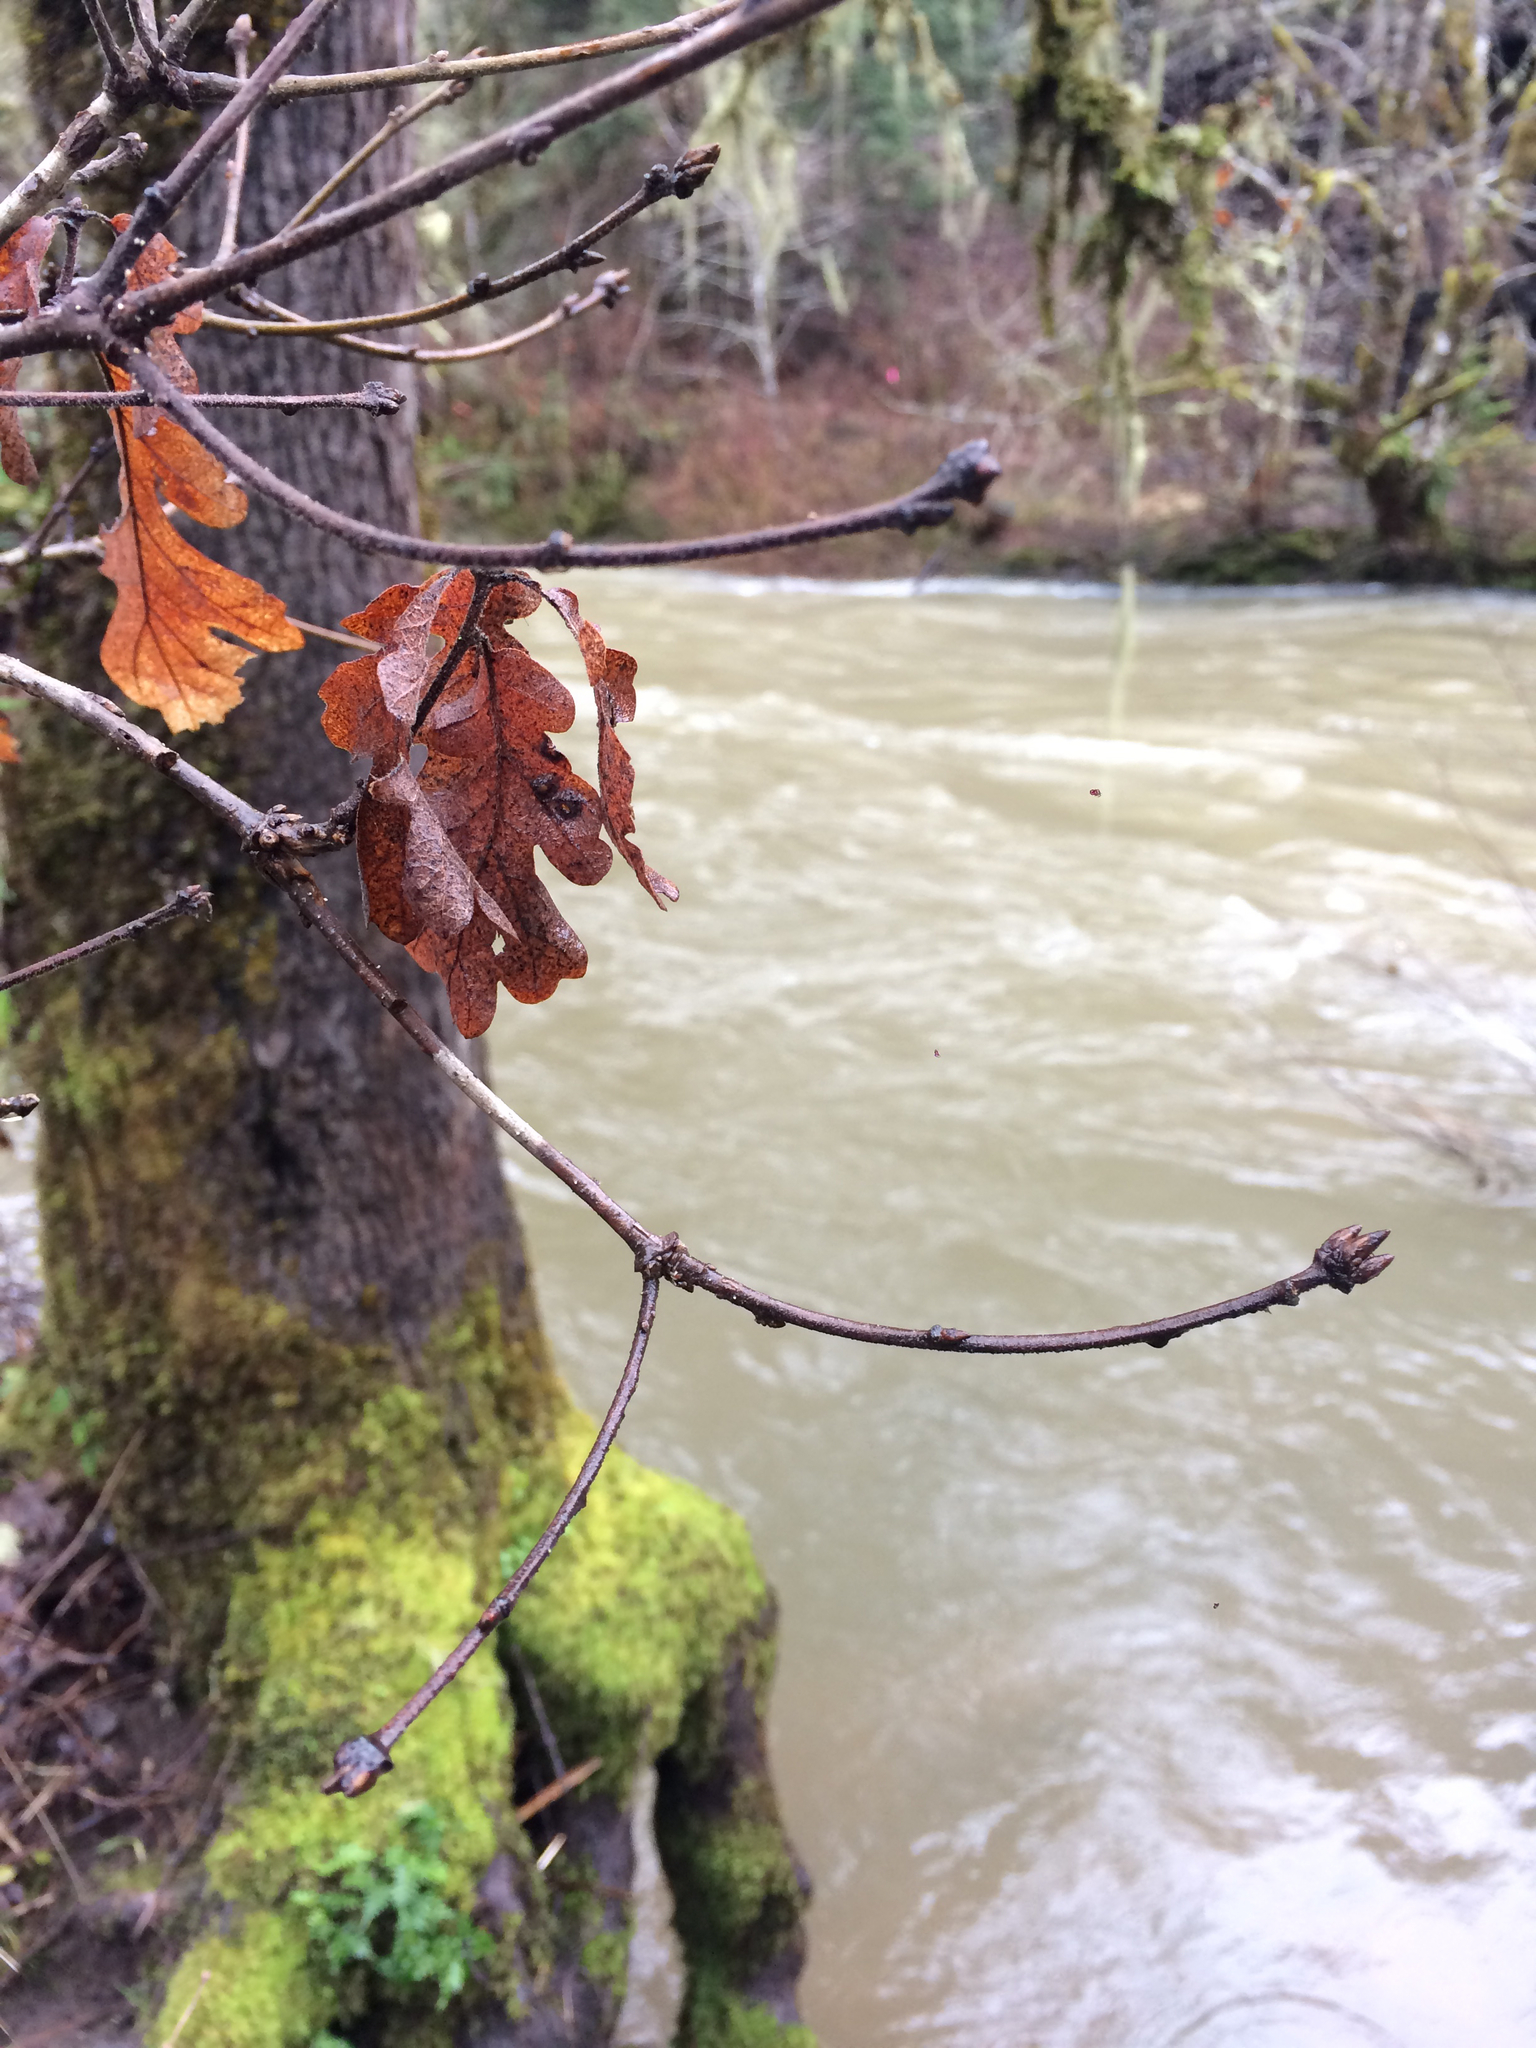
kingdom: Plantae
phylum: Tracheophyta
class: Magnoliopsida
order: Fagales
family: Fagaceae
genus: Quercus
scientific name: Quercus garryana
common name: Garry oak
